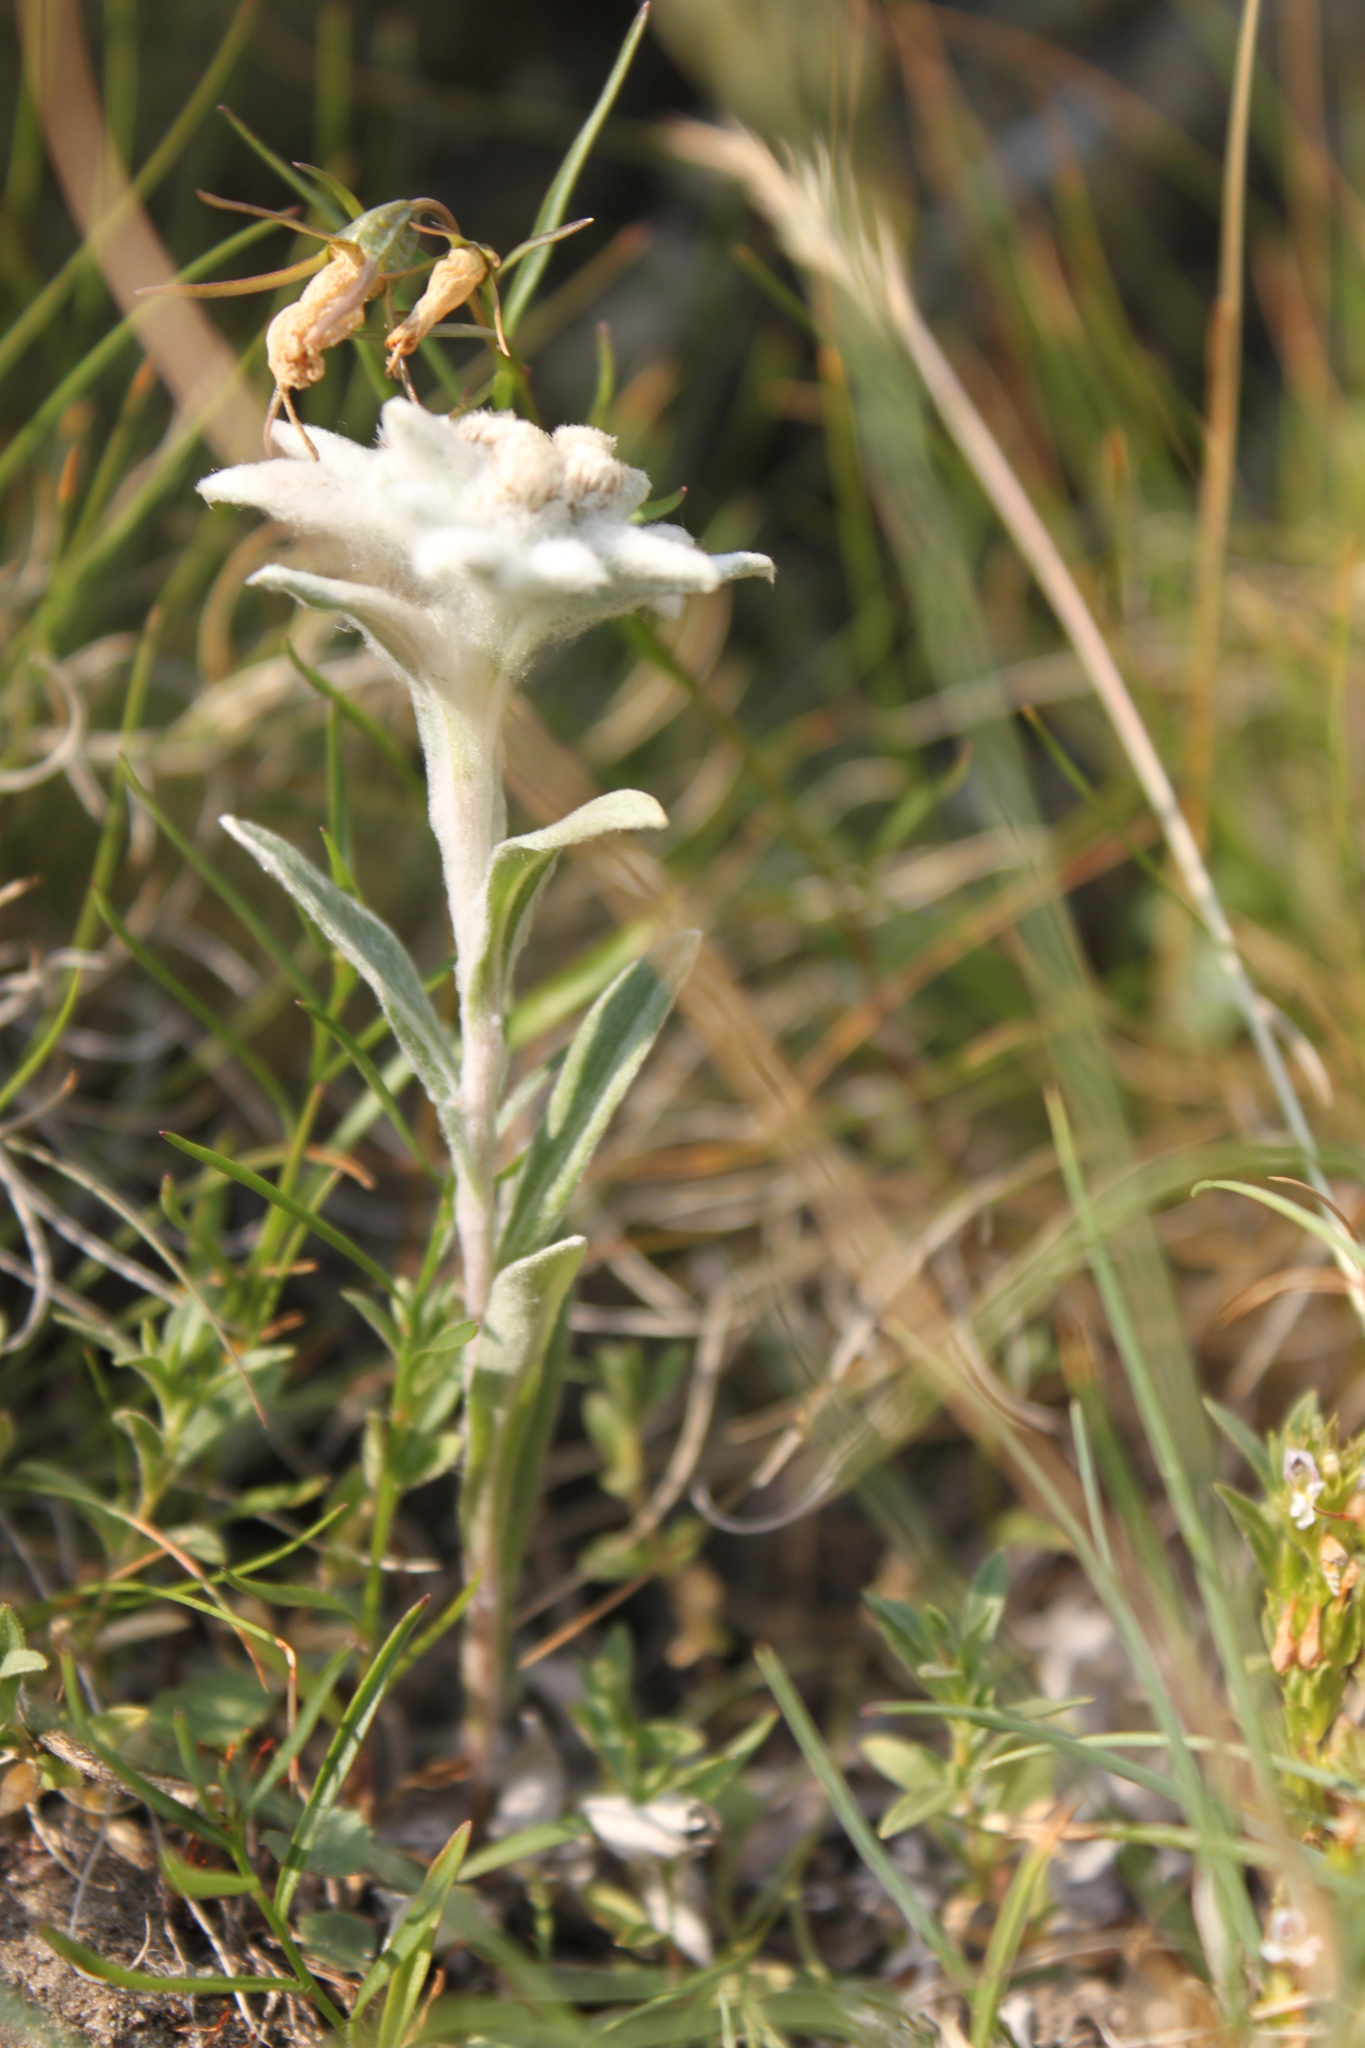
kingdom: Plantae
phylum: Tracheophyta
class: Magnoliopsida
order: Asterales
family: Asteraceae
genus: Leontopodium
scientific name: Leontopodium nivale
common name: Edelweiss
